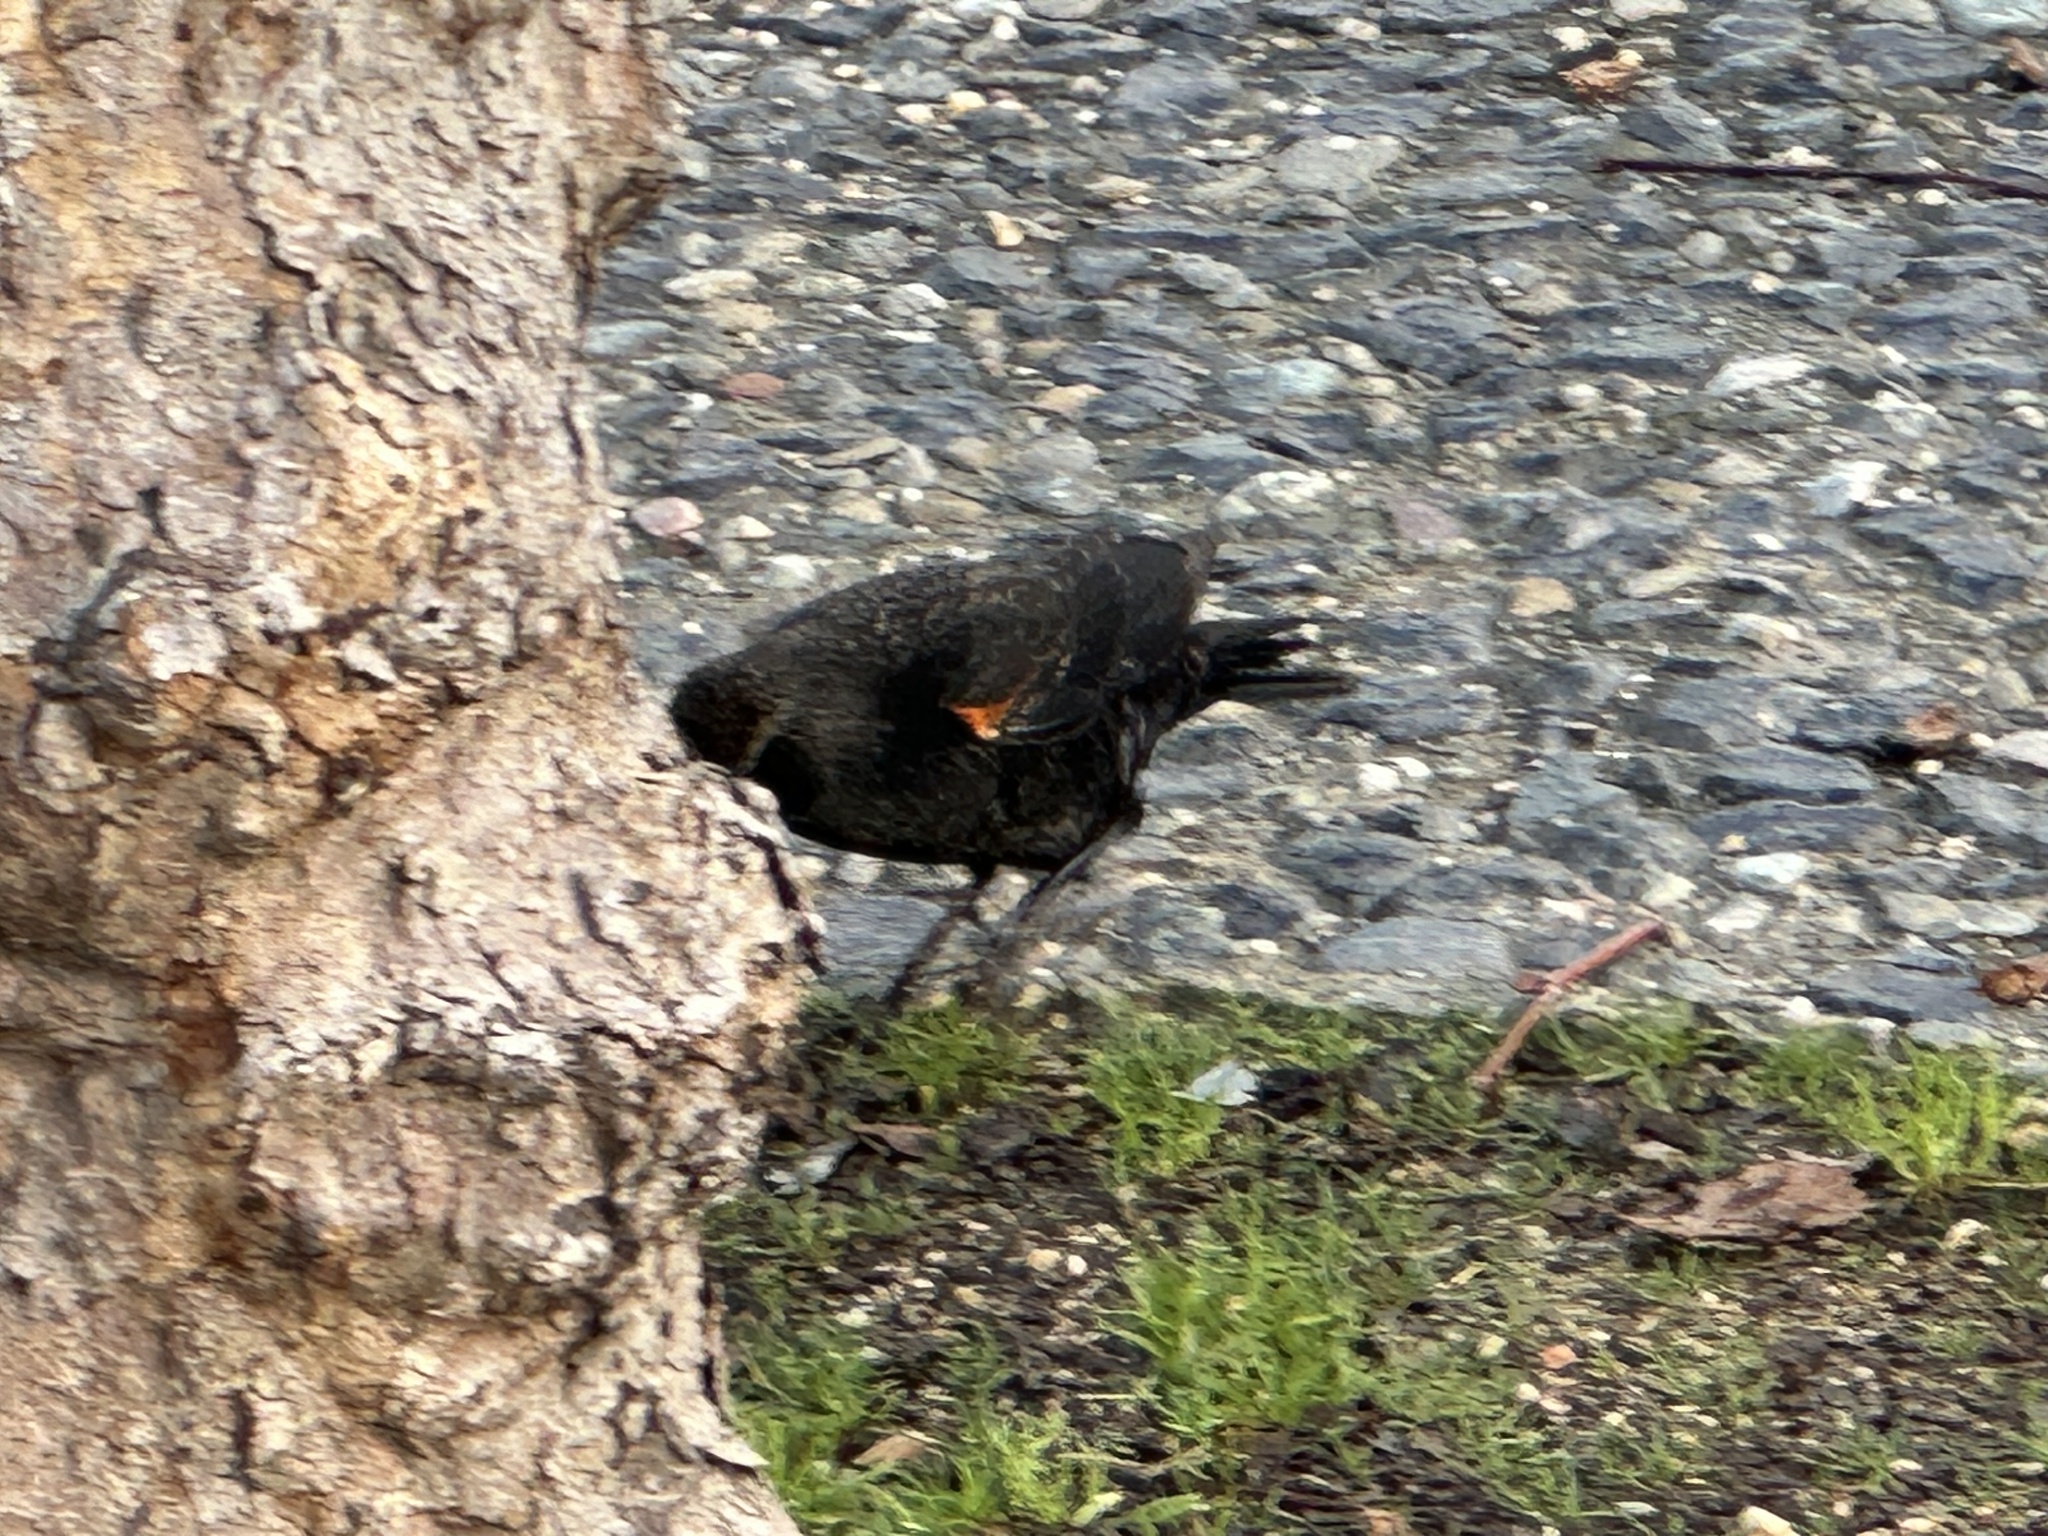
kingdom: Animalia
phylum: Chordata
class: Aves
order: Passeriformes
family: Icteridae
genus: Agelaius
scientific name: Agelaius phoeniceus
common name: Red-winged blackbird
